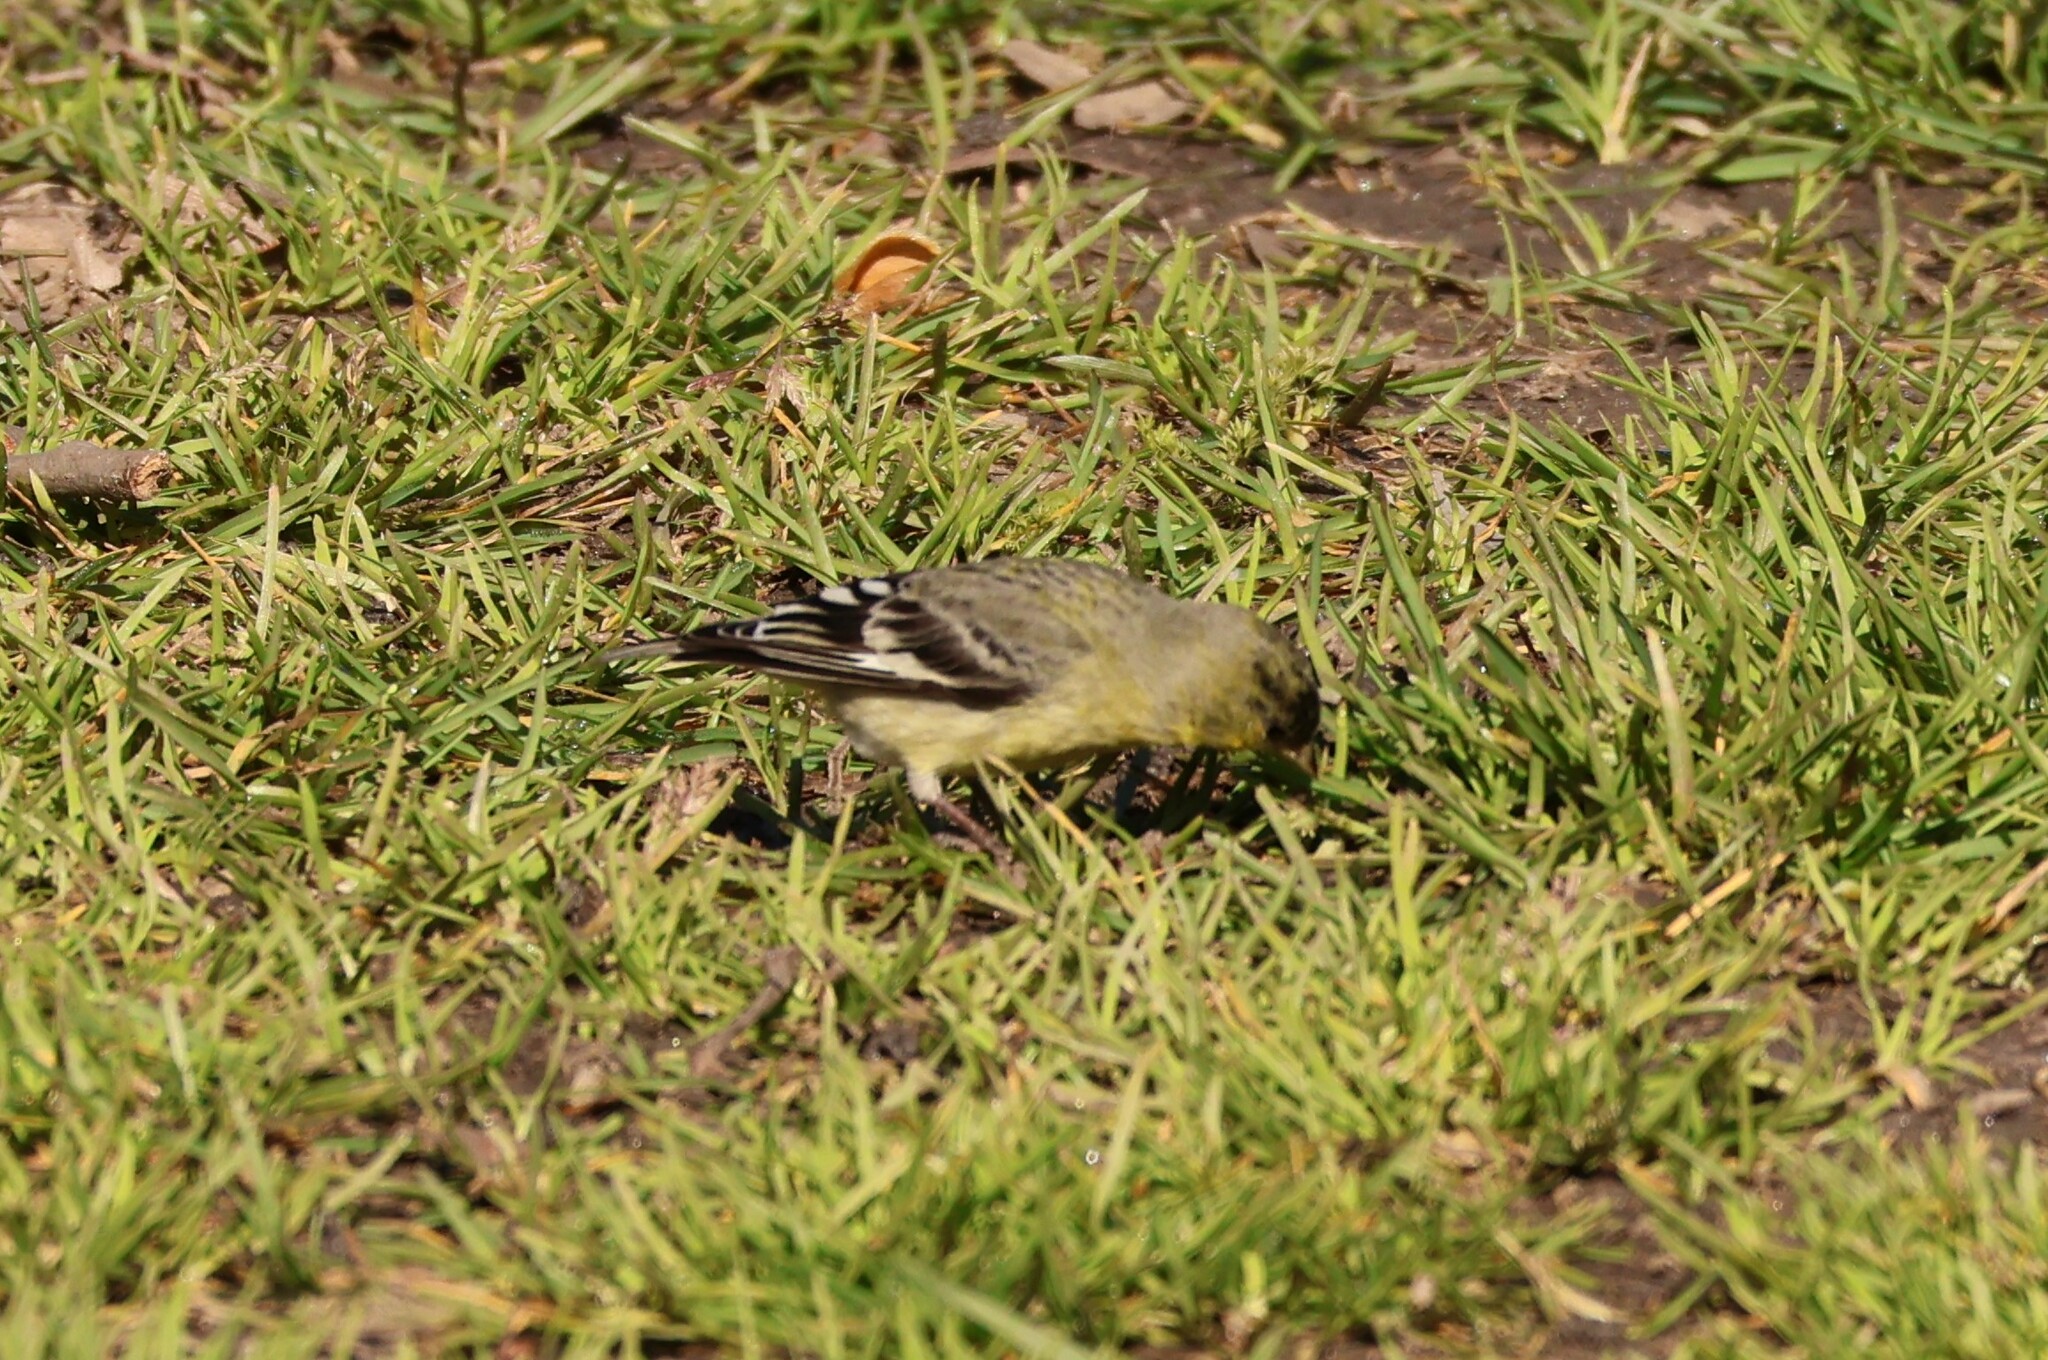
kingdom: Animalia
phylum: Chordata
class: Aves
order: Passeriformes
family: Fringillidae
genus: Spinus
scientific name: Spinus psaltria
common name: Lesser goldfinch
